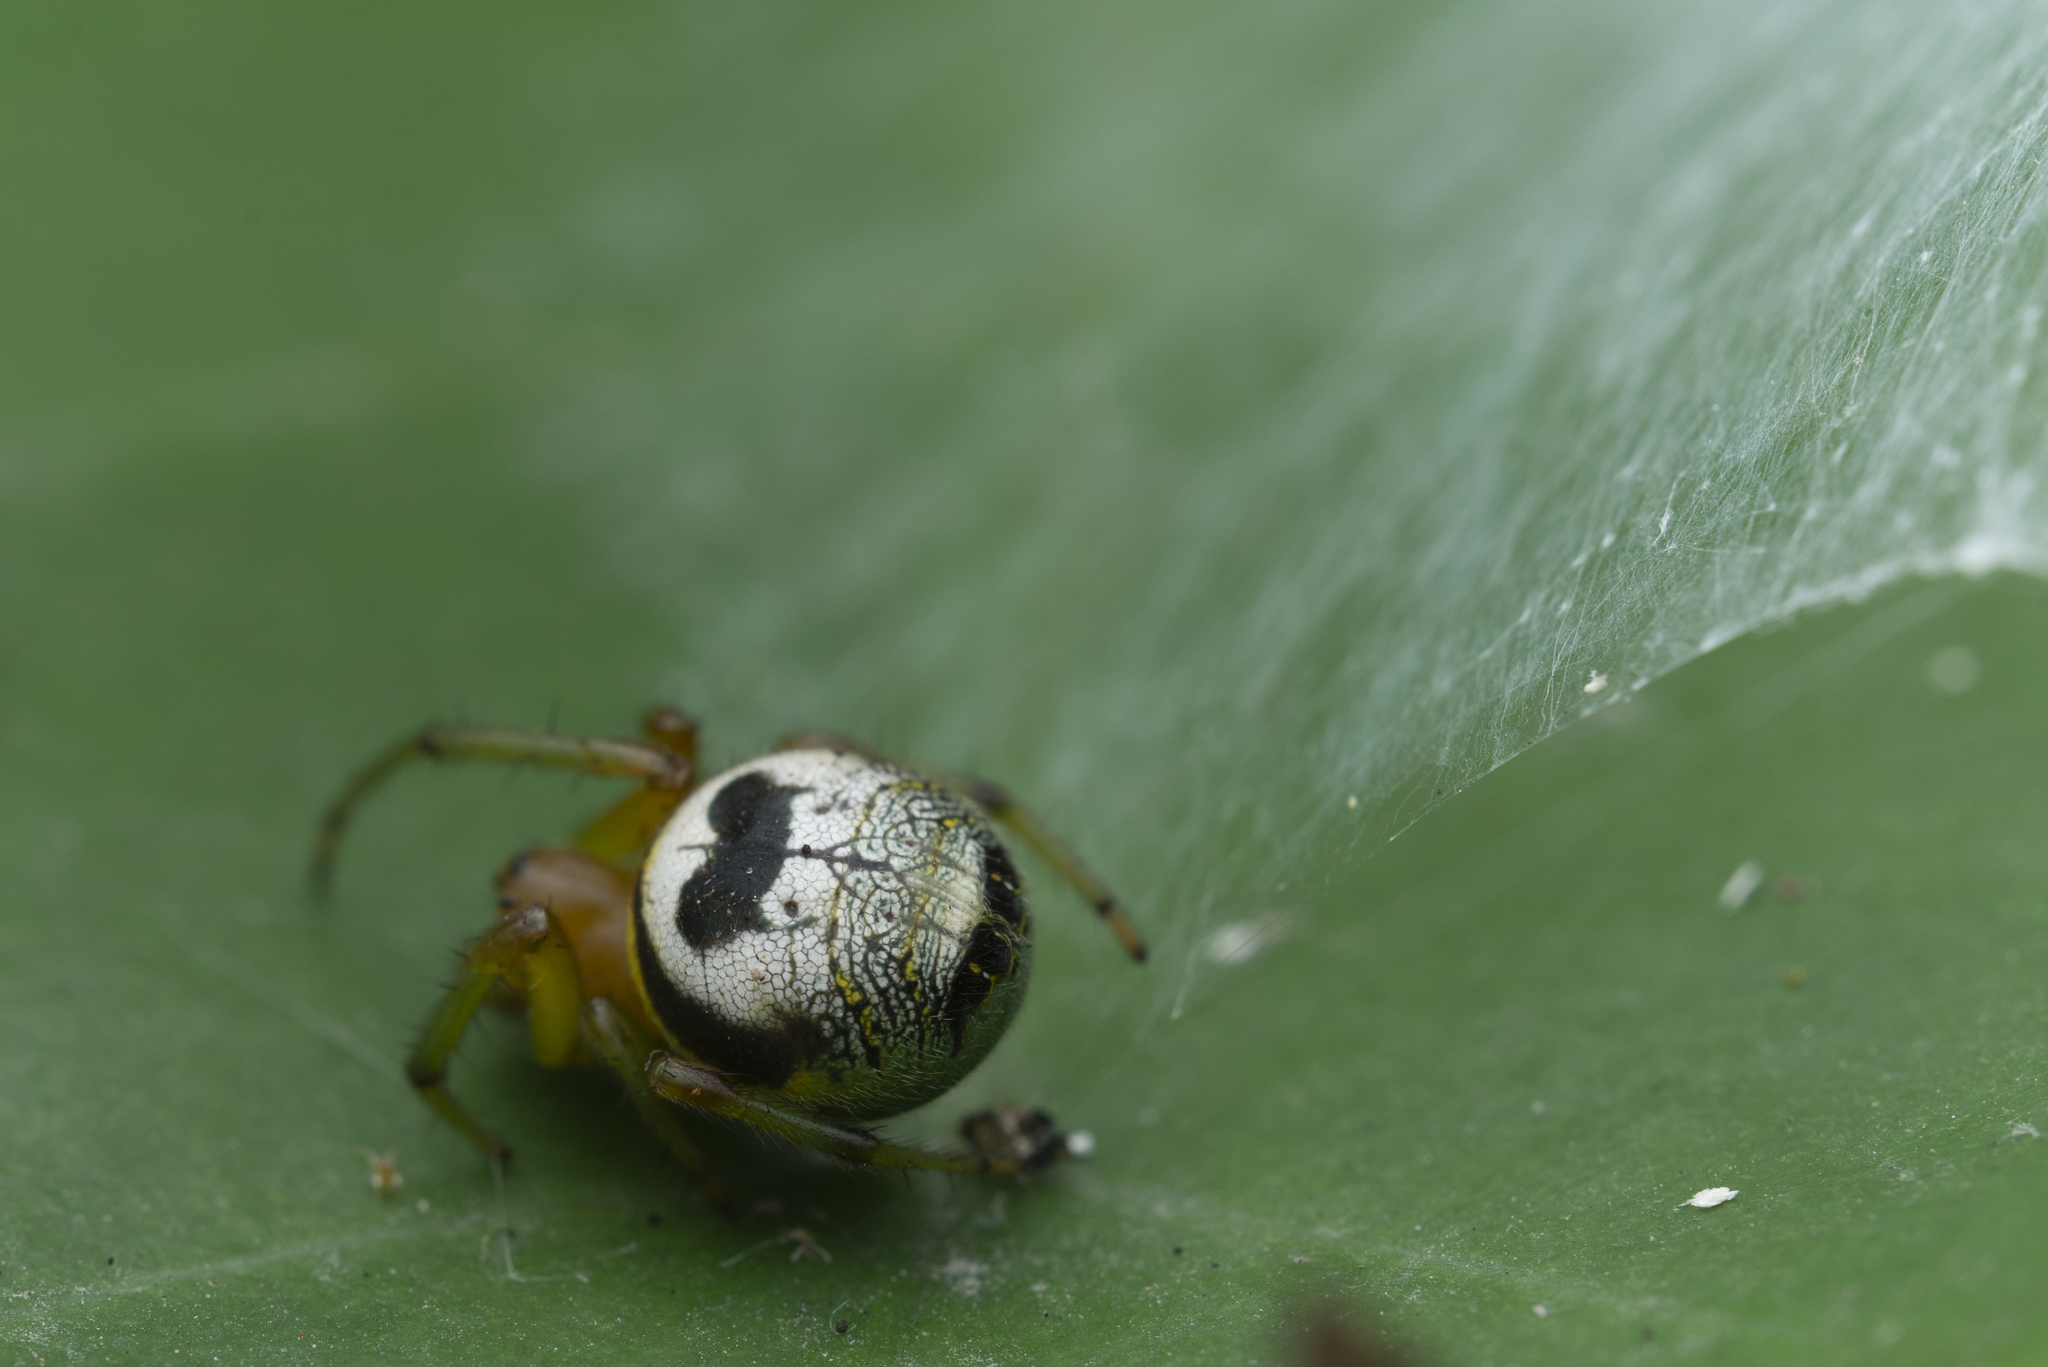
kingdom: Animalia
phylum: Arthropoda
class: Arachnida
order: Araneae
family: Araneidae
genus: Bijoaraneus
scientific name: Bijoaraneus mitificus
